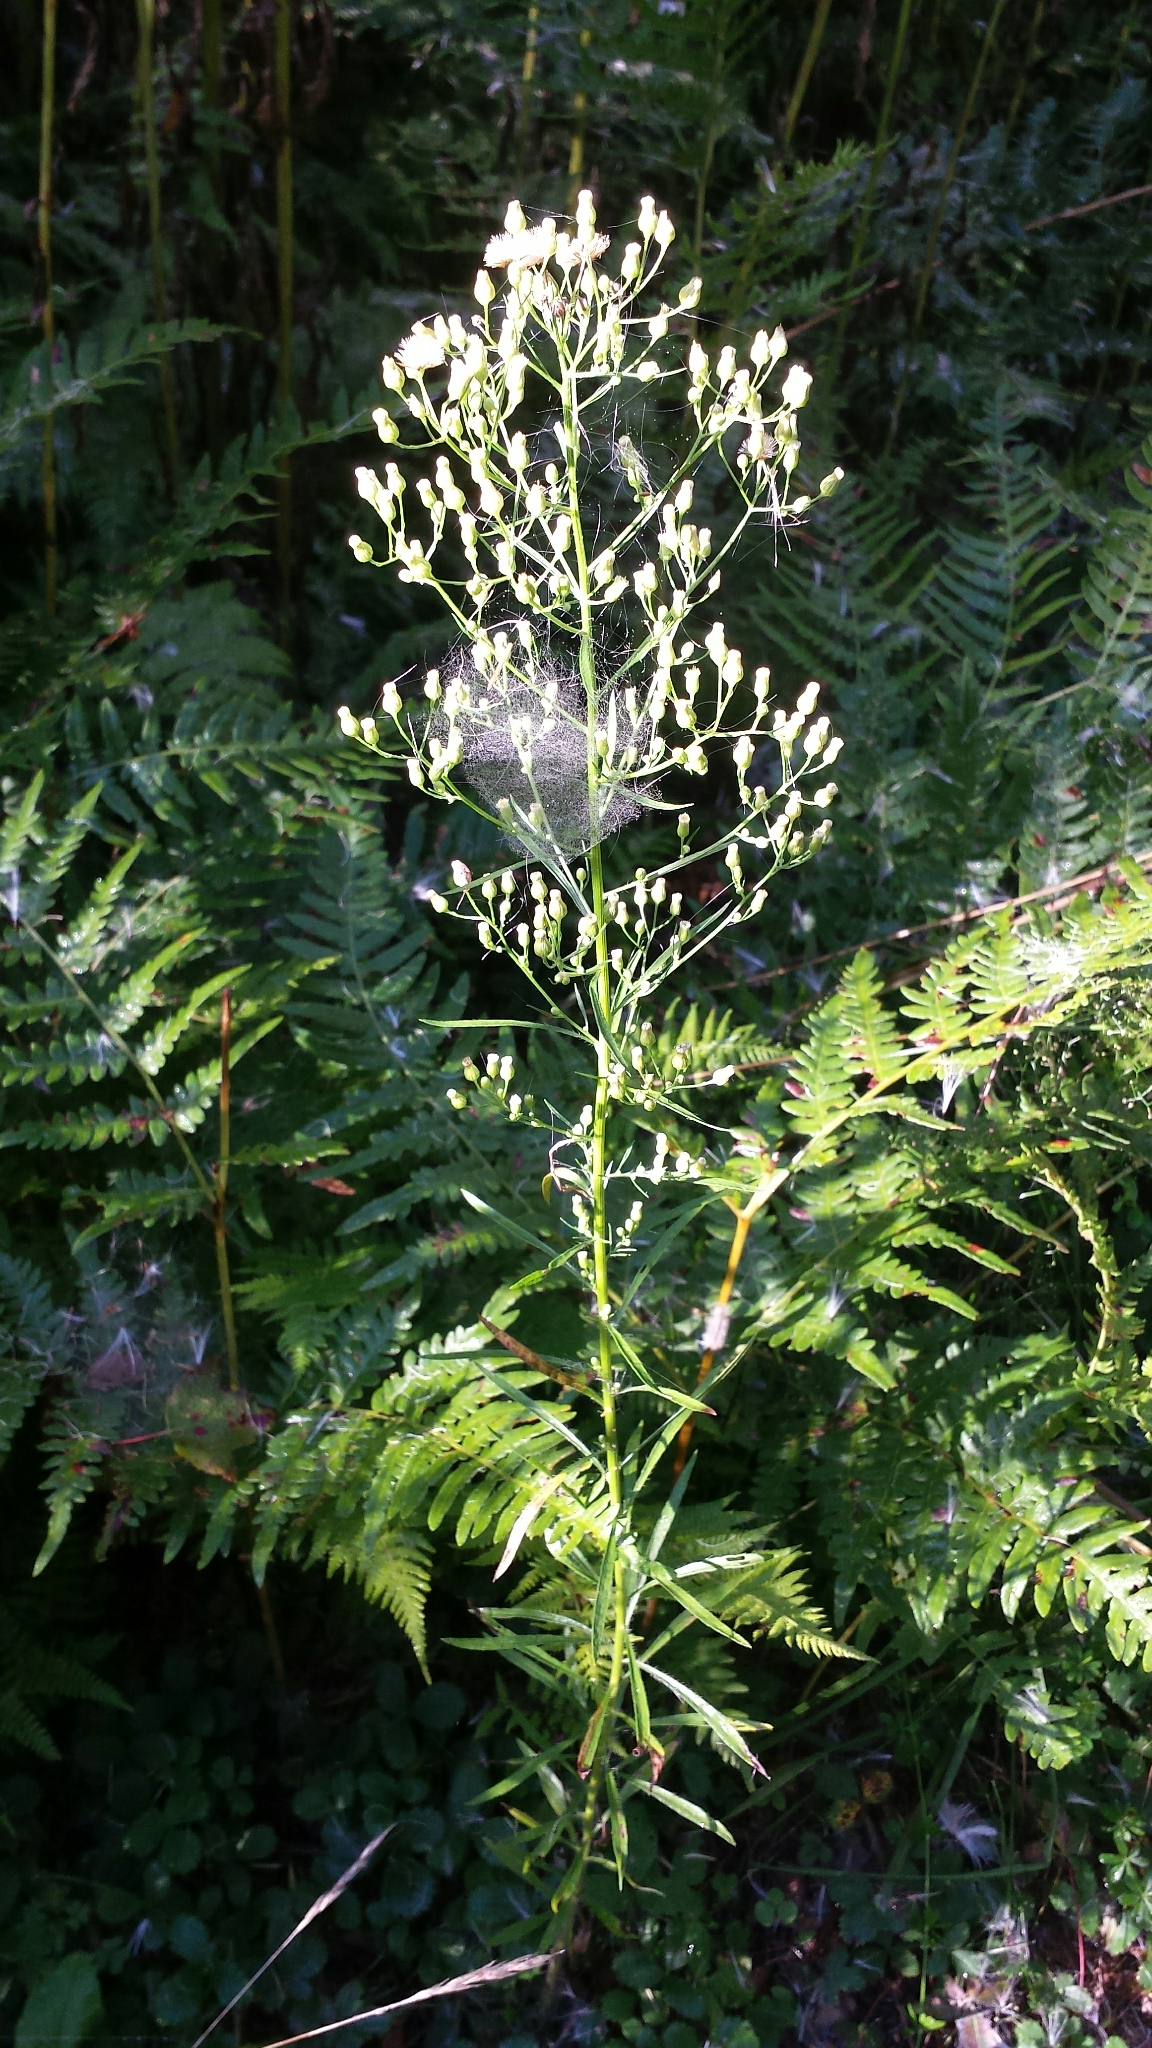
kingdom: Plantae
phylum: Tracheophyta
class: Magnoliopsida
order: Asterales
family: Asteraceae
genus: Erigeron
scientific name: Erigeron canadensis
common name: Canadian fleabane
